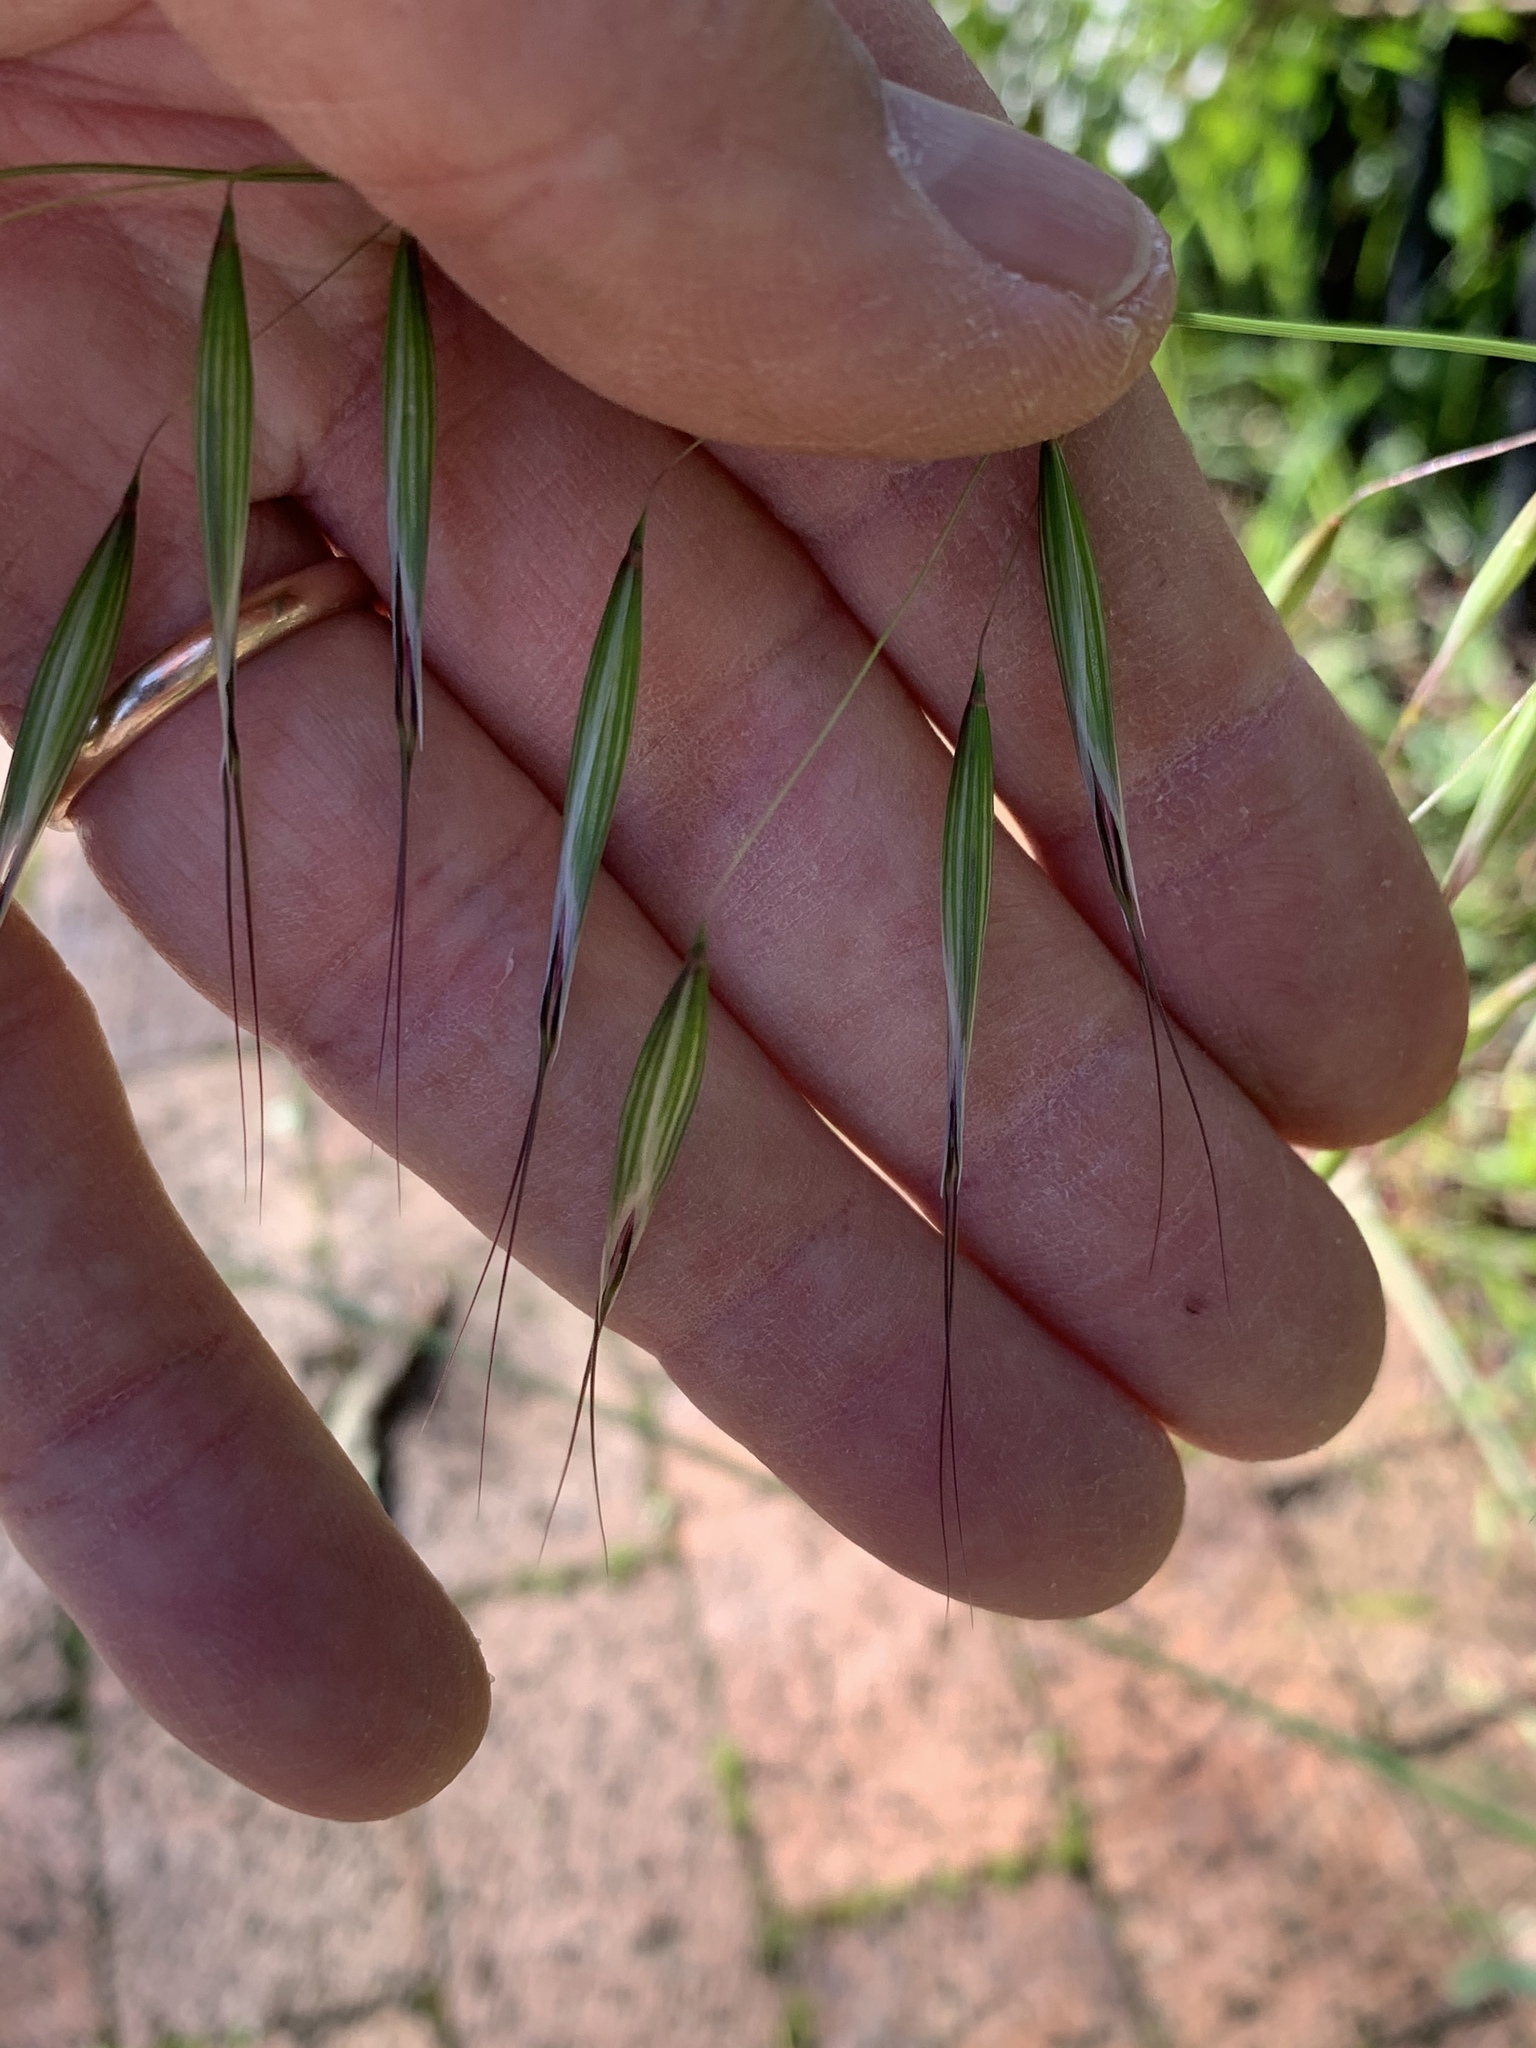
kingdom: Plantae
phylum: Tracheophyta
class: Liliopsida
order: Poales
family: Poaceae
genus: Avena
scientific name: Avena fatua
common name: Wild oat
